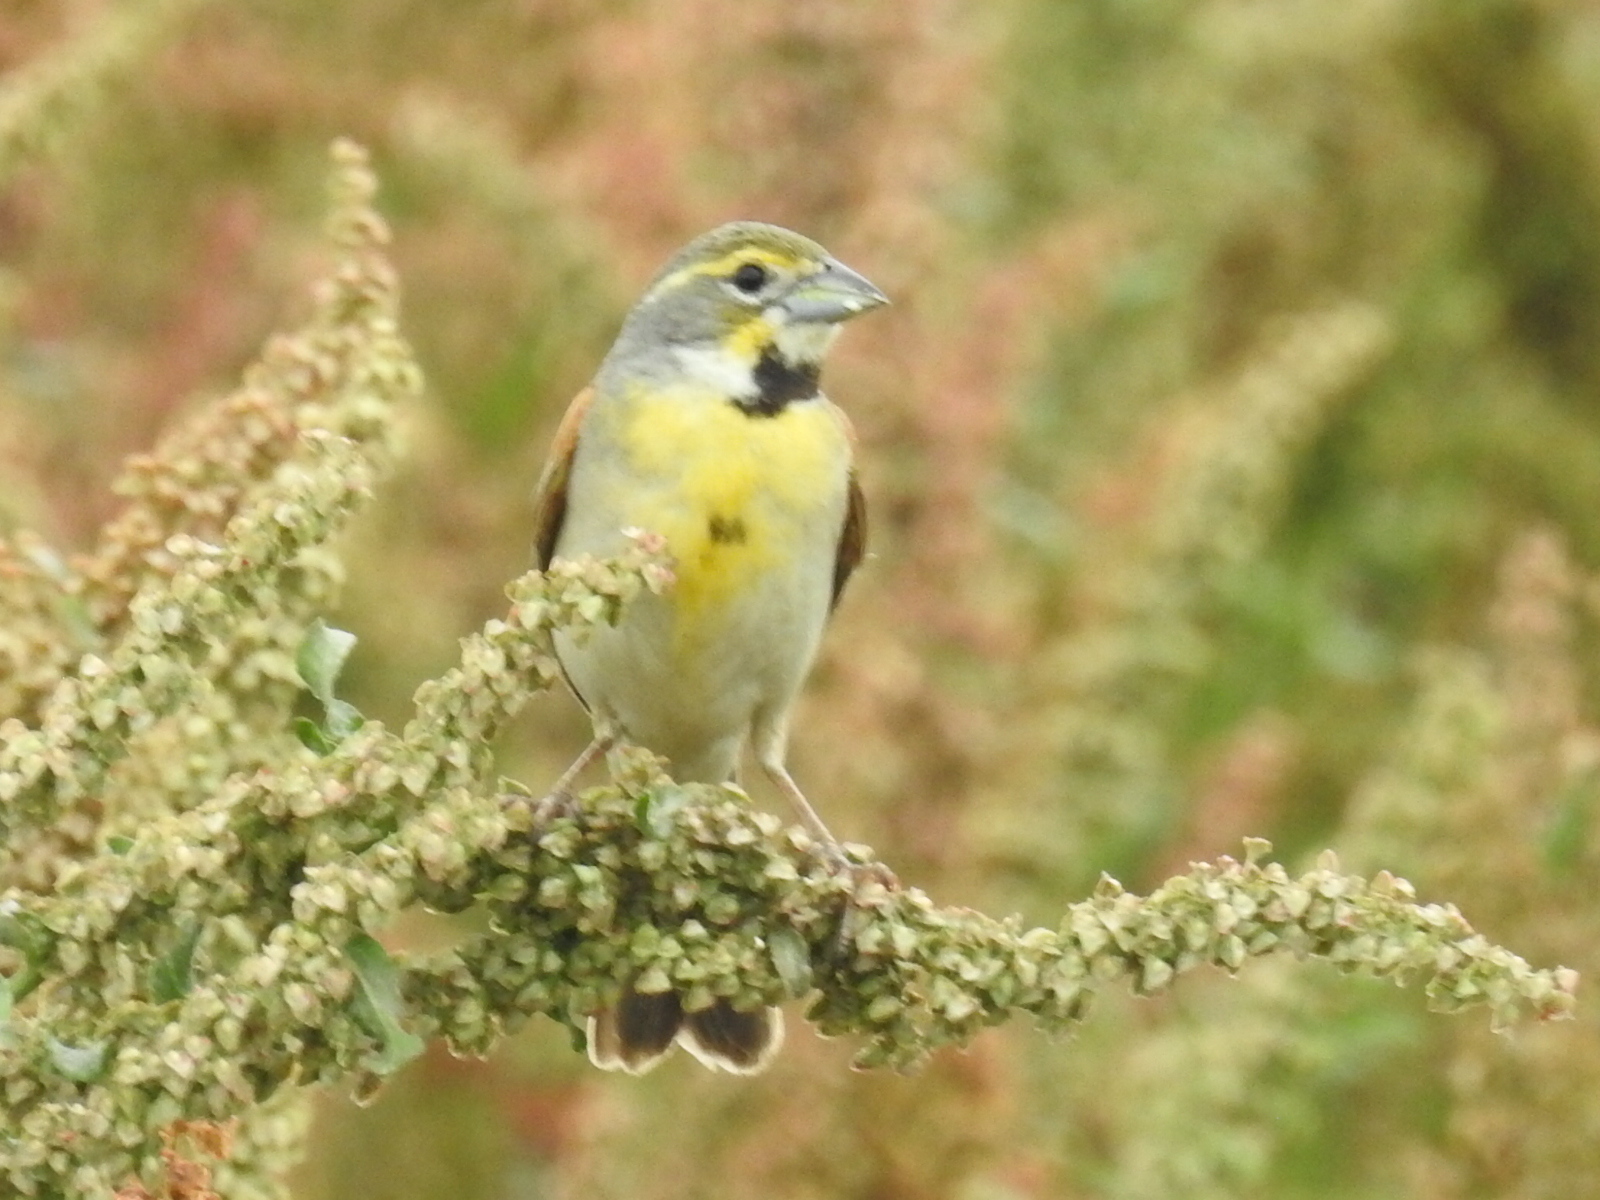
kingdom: Animalia
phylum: Chordata
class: Aves
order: Passeriformes
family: Cardinalidae
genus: Spiza
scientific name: Spiza americana
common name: Dickcissel
